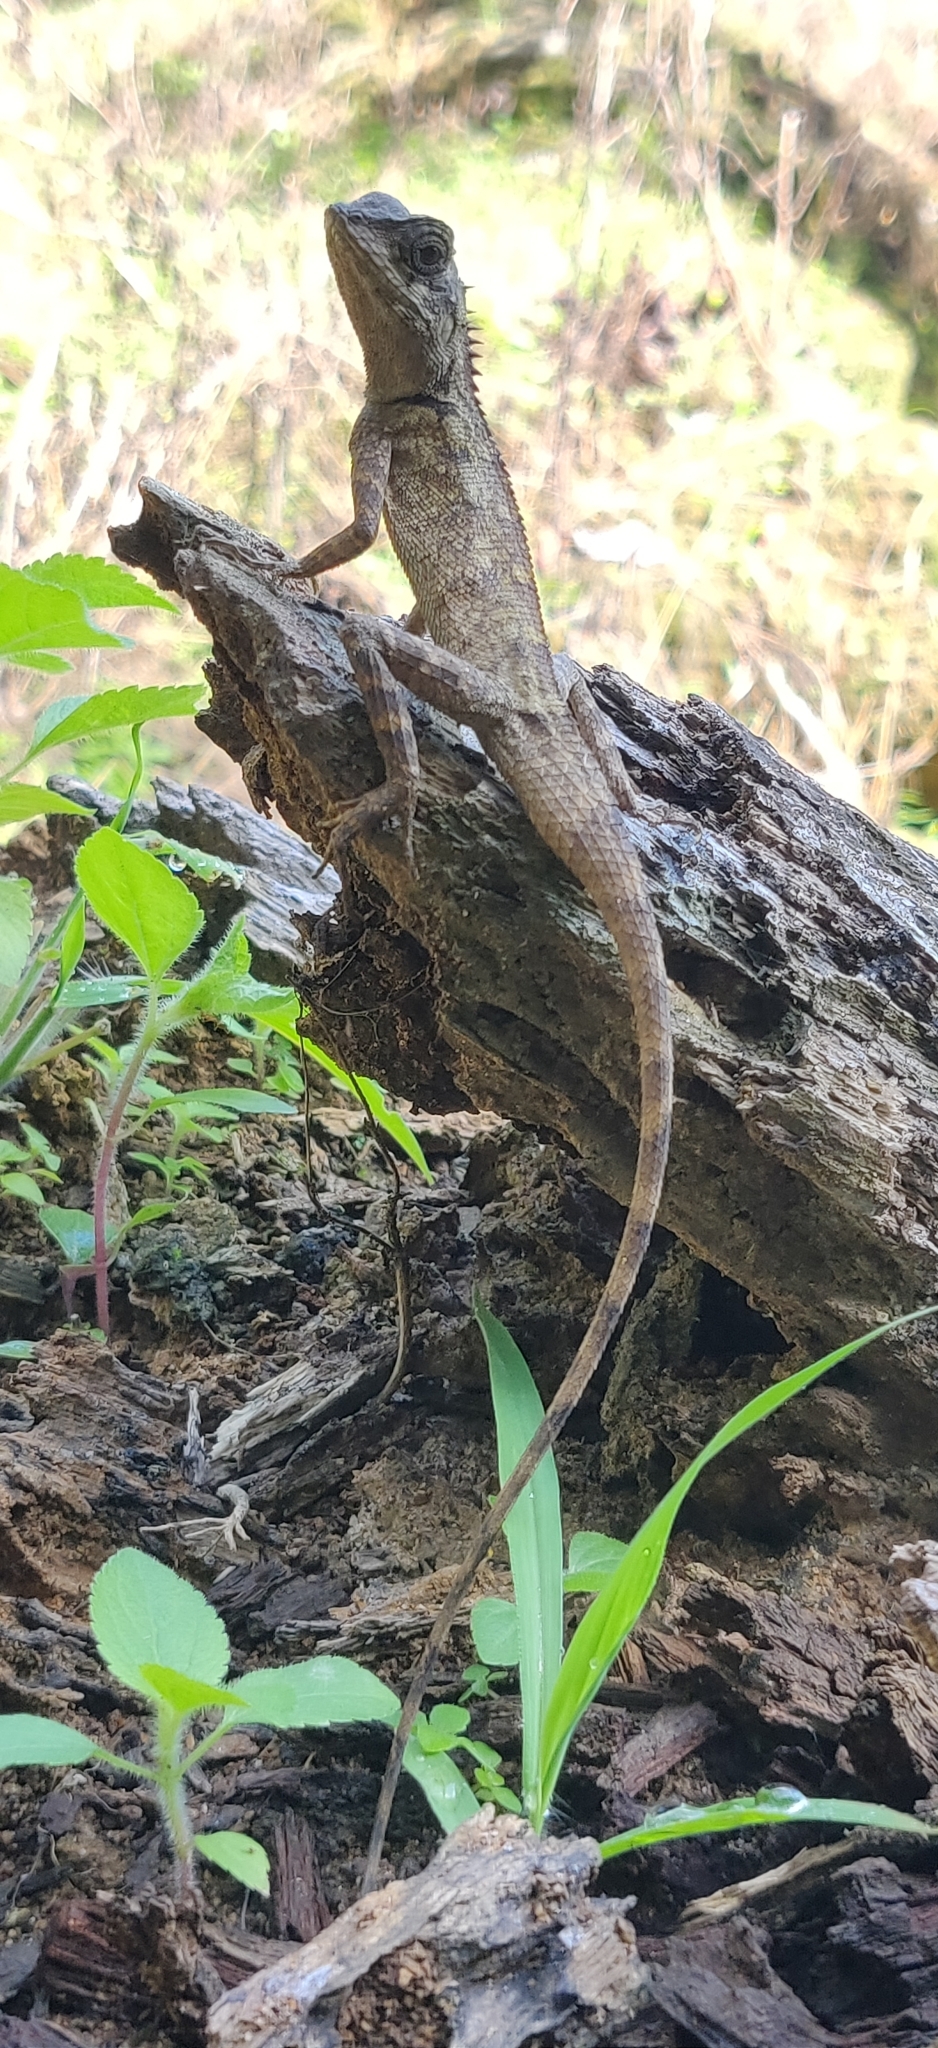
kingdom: Animalia
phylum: Chordata
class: Squamata
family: Agamidae
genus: Monilesaurus
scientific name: Monilesaurus rouxii
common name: Roux's forest lizard
